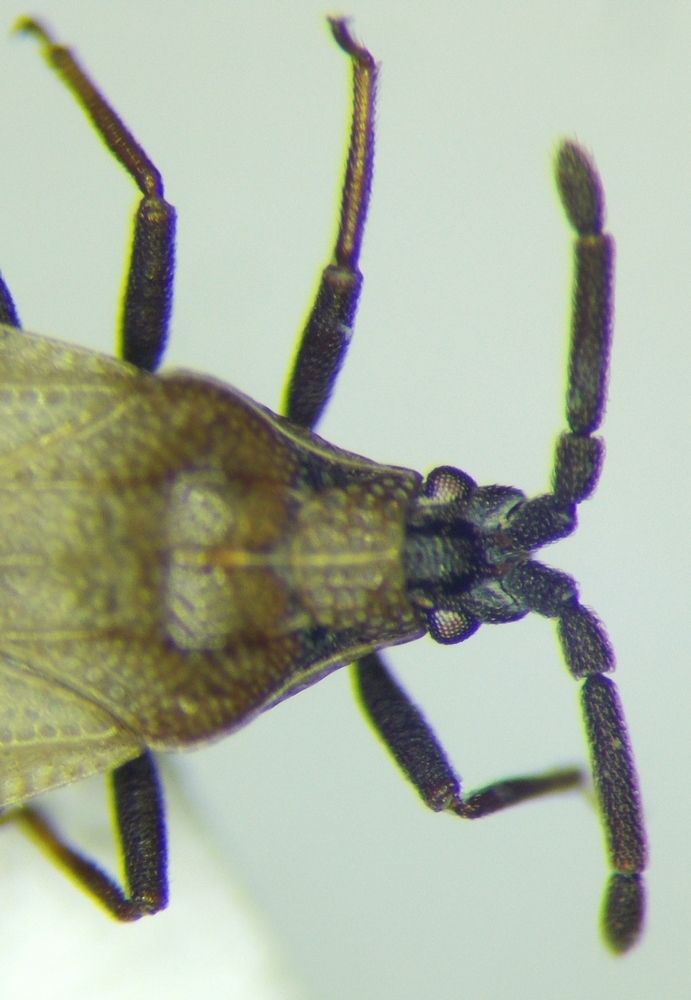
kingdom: Animalia
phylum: Arthropoda
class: Insecta
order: Hemiptera
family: Tingidae
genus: Catoplatus
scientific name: Catoplatus carthusianus
